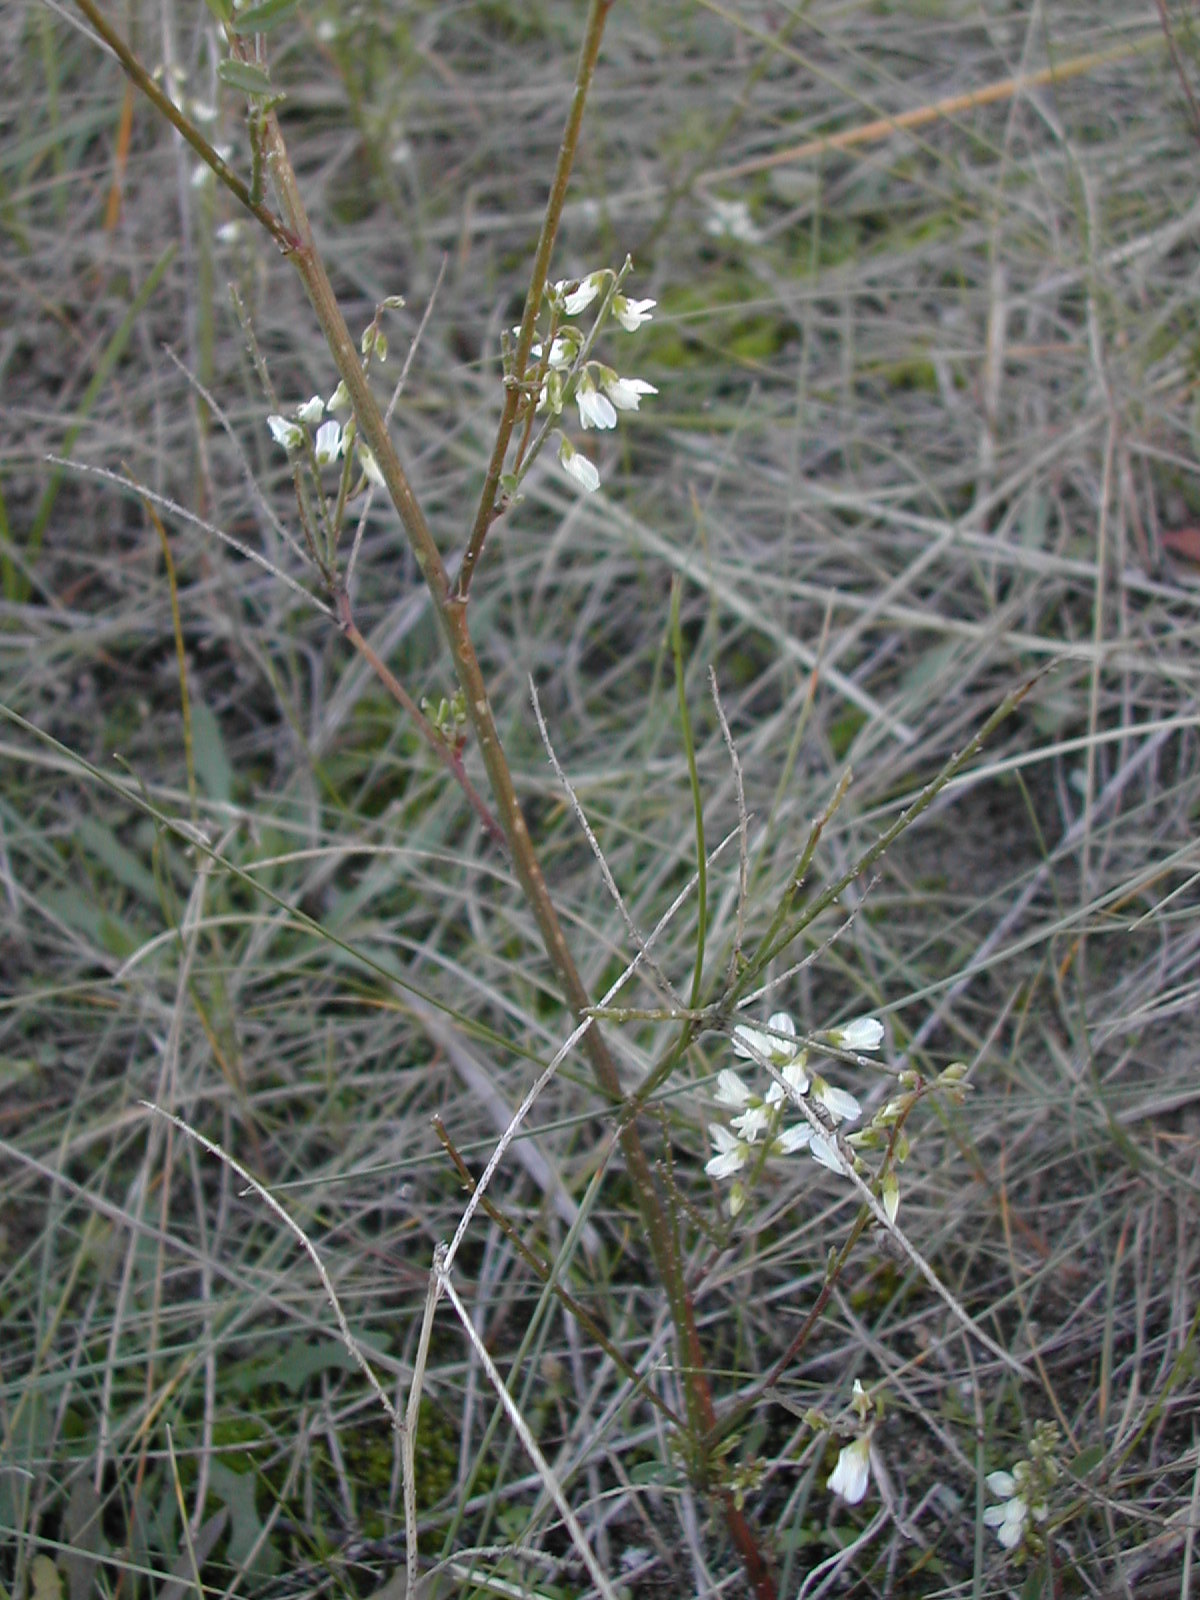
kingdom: Plantae
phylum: Tracheophyta
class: Magnoliopsida
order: Fabales
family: Fabaceae
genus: Melilotus
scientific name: Melilotus albus
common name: White melilot
